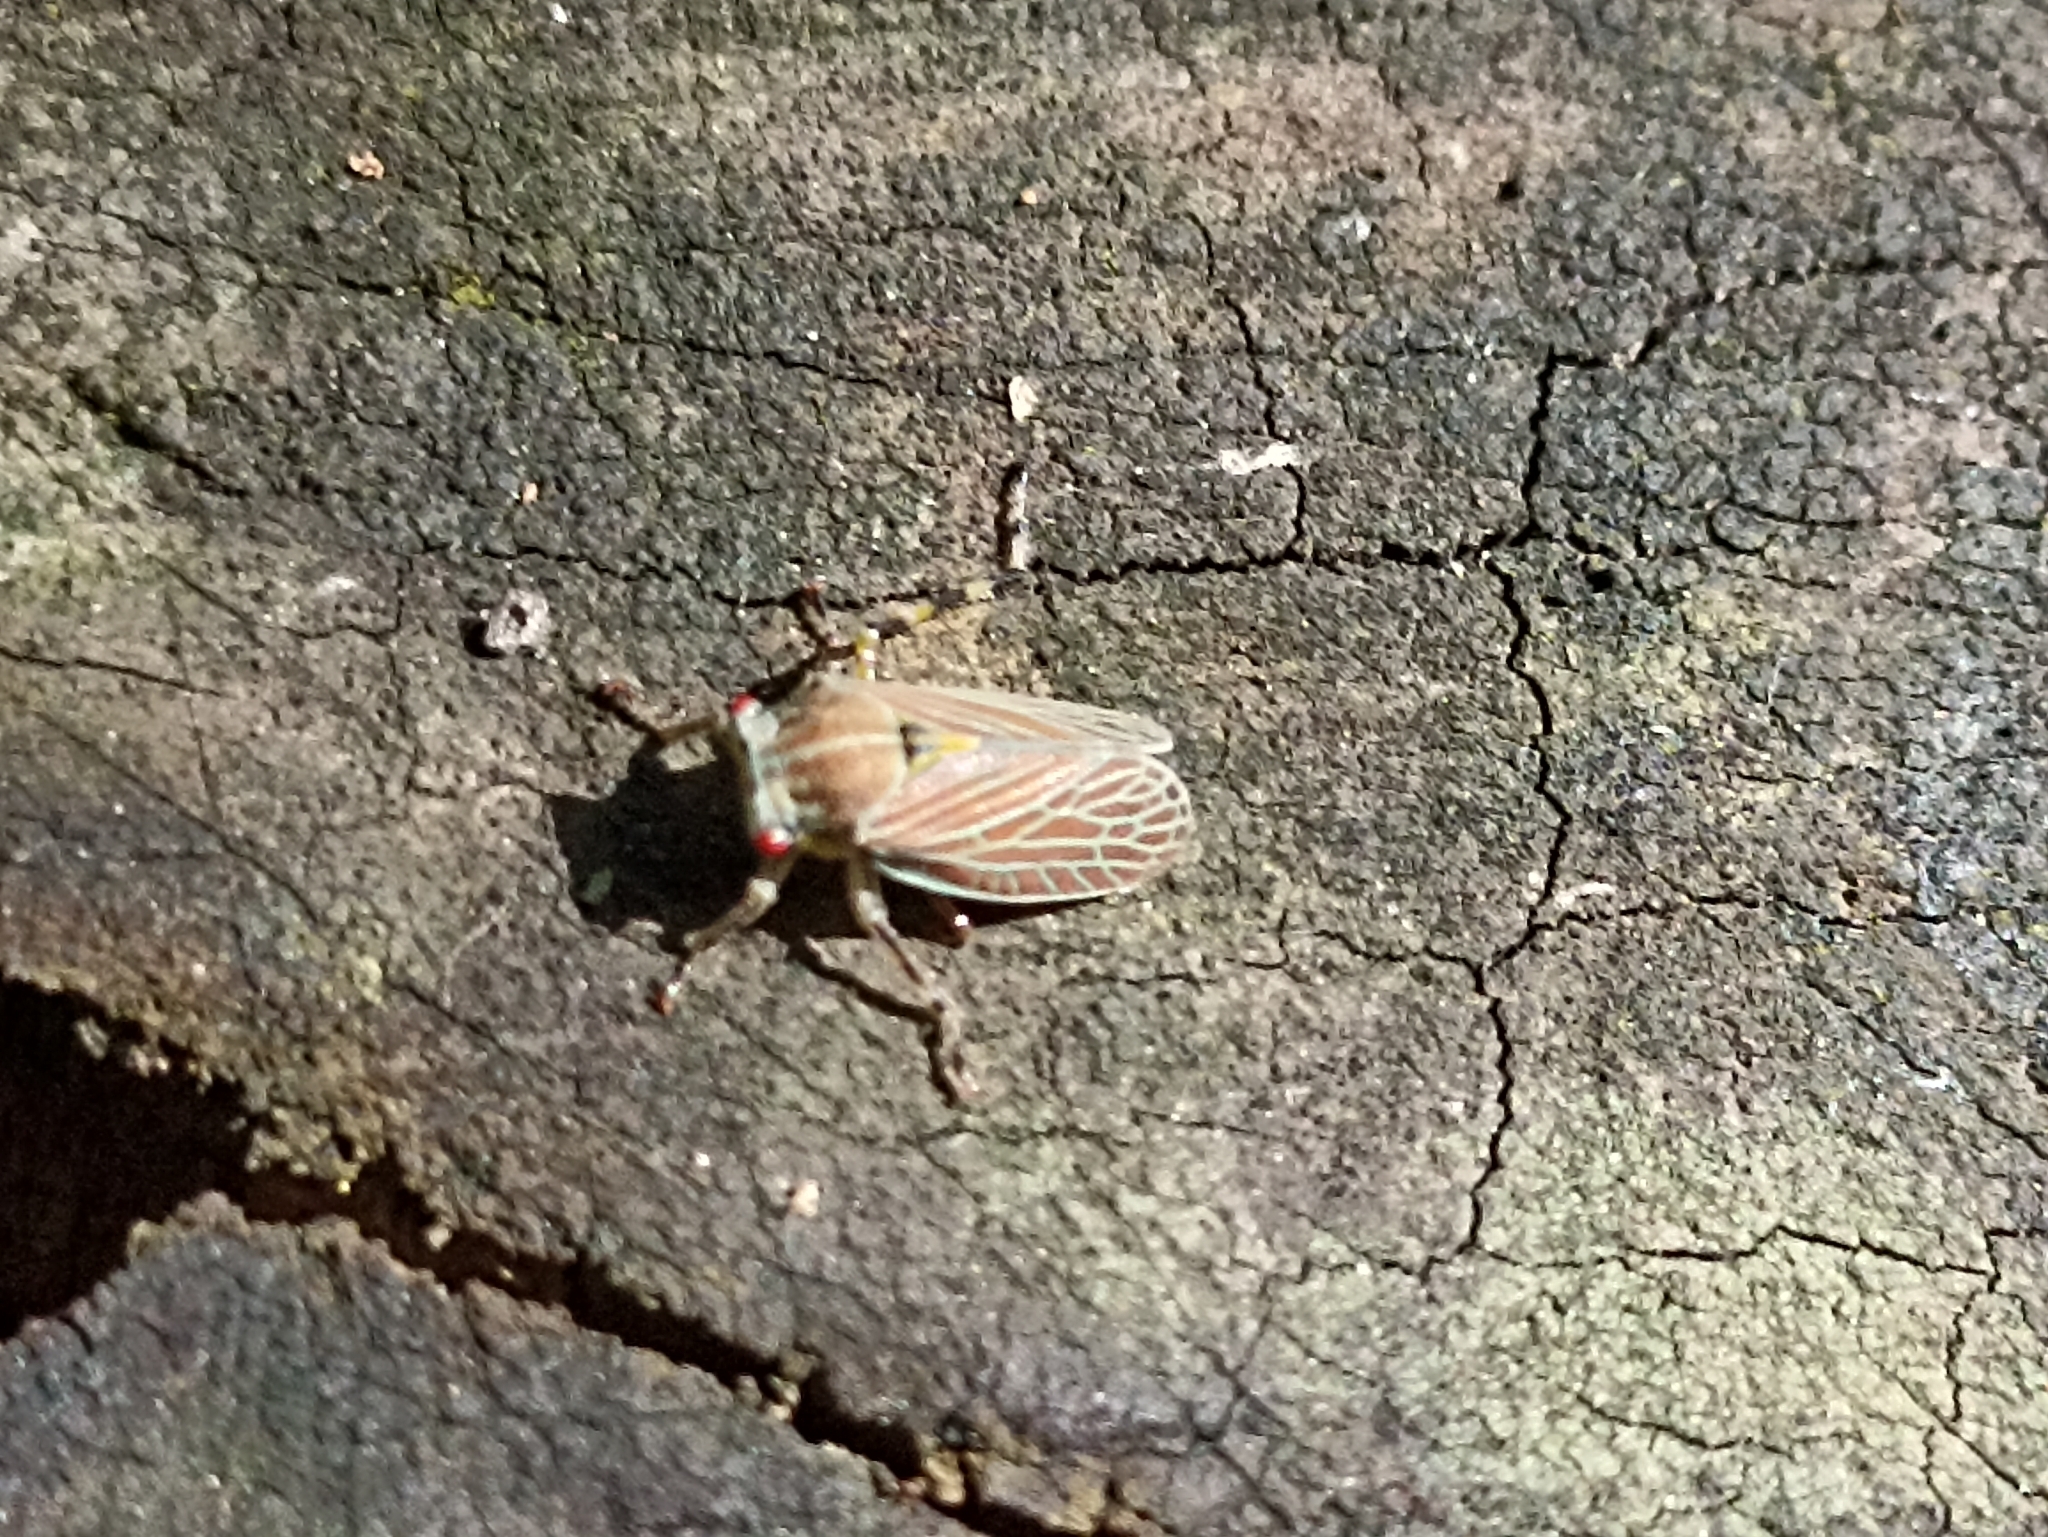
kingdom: Animalia
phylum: Arthropoda
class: Insecta
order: Hemiptera
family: Aetalionidae
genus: Aetalion
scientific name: Aetalion reticulatum
